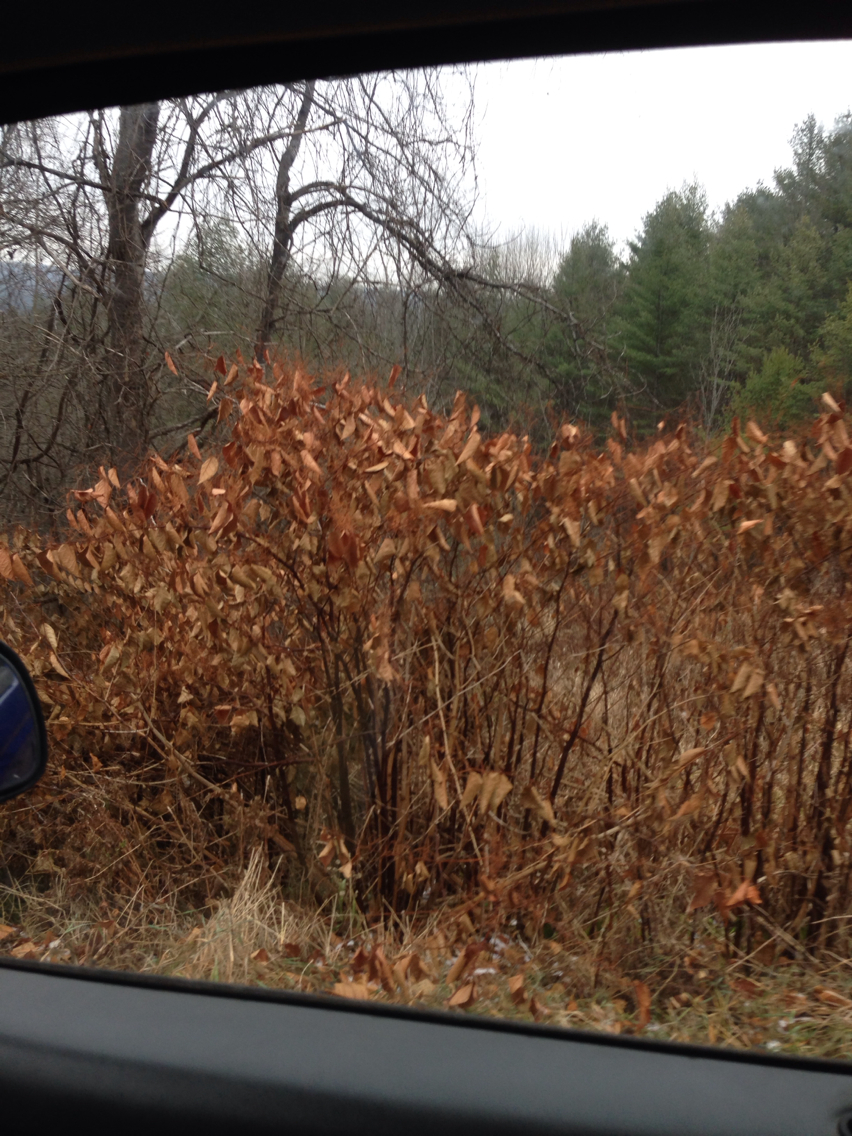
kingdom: Plantae
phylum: Tracheophyta
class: Magnoliopsida
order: Caryophyllales
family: Polygonaceae
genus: Reynoutria
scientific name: Reynoutria japonica
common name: Japanese knotweed
